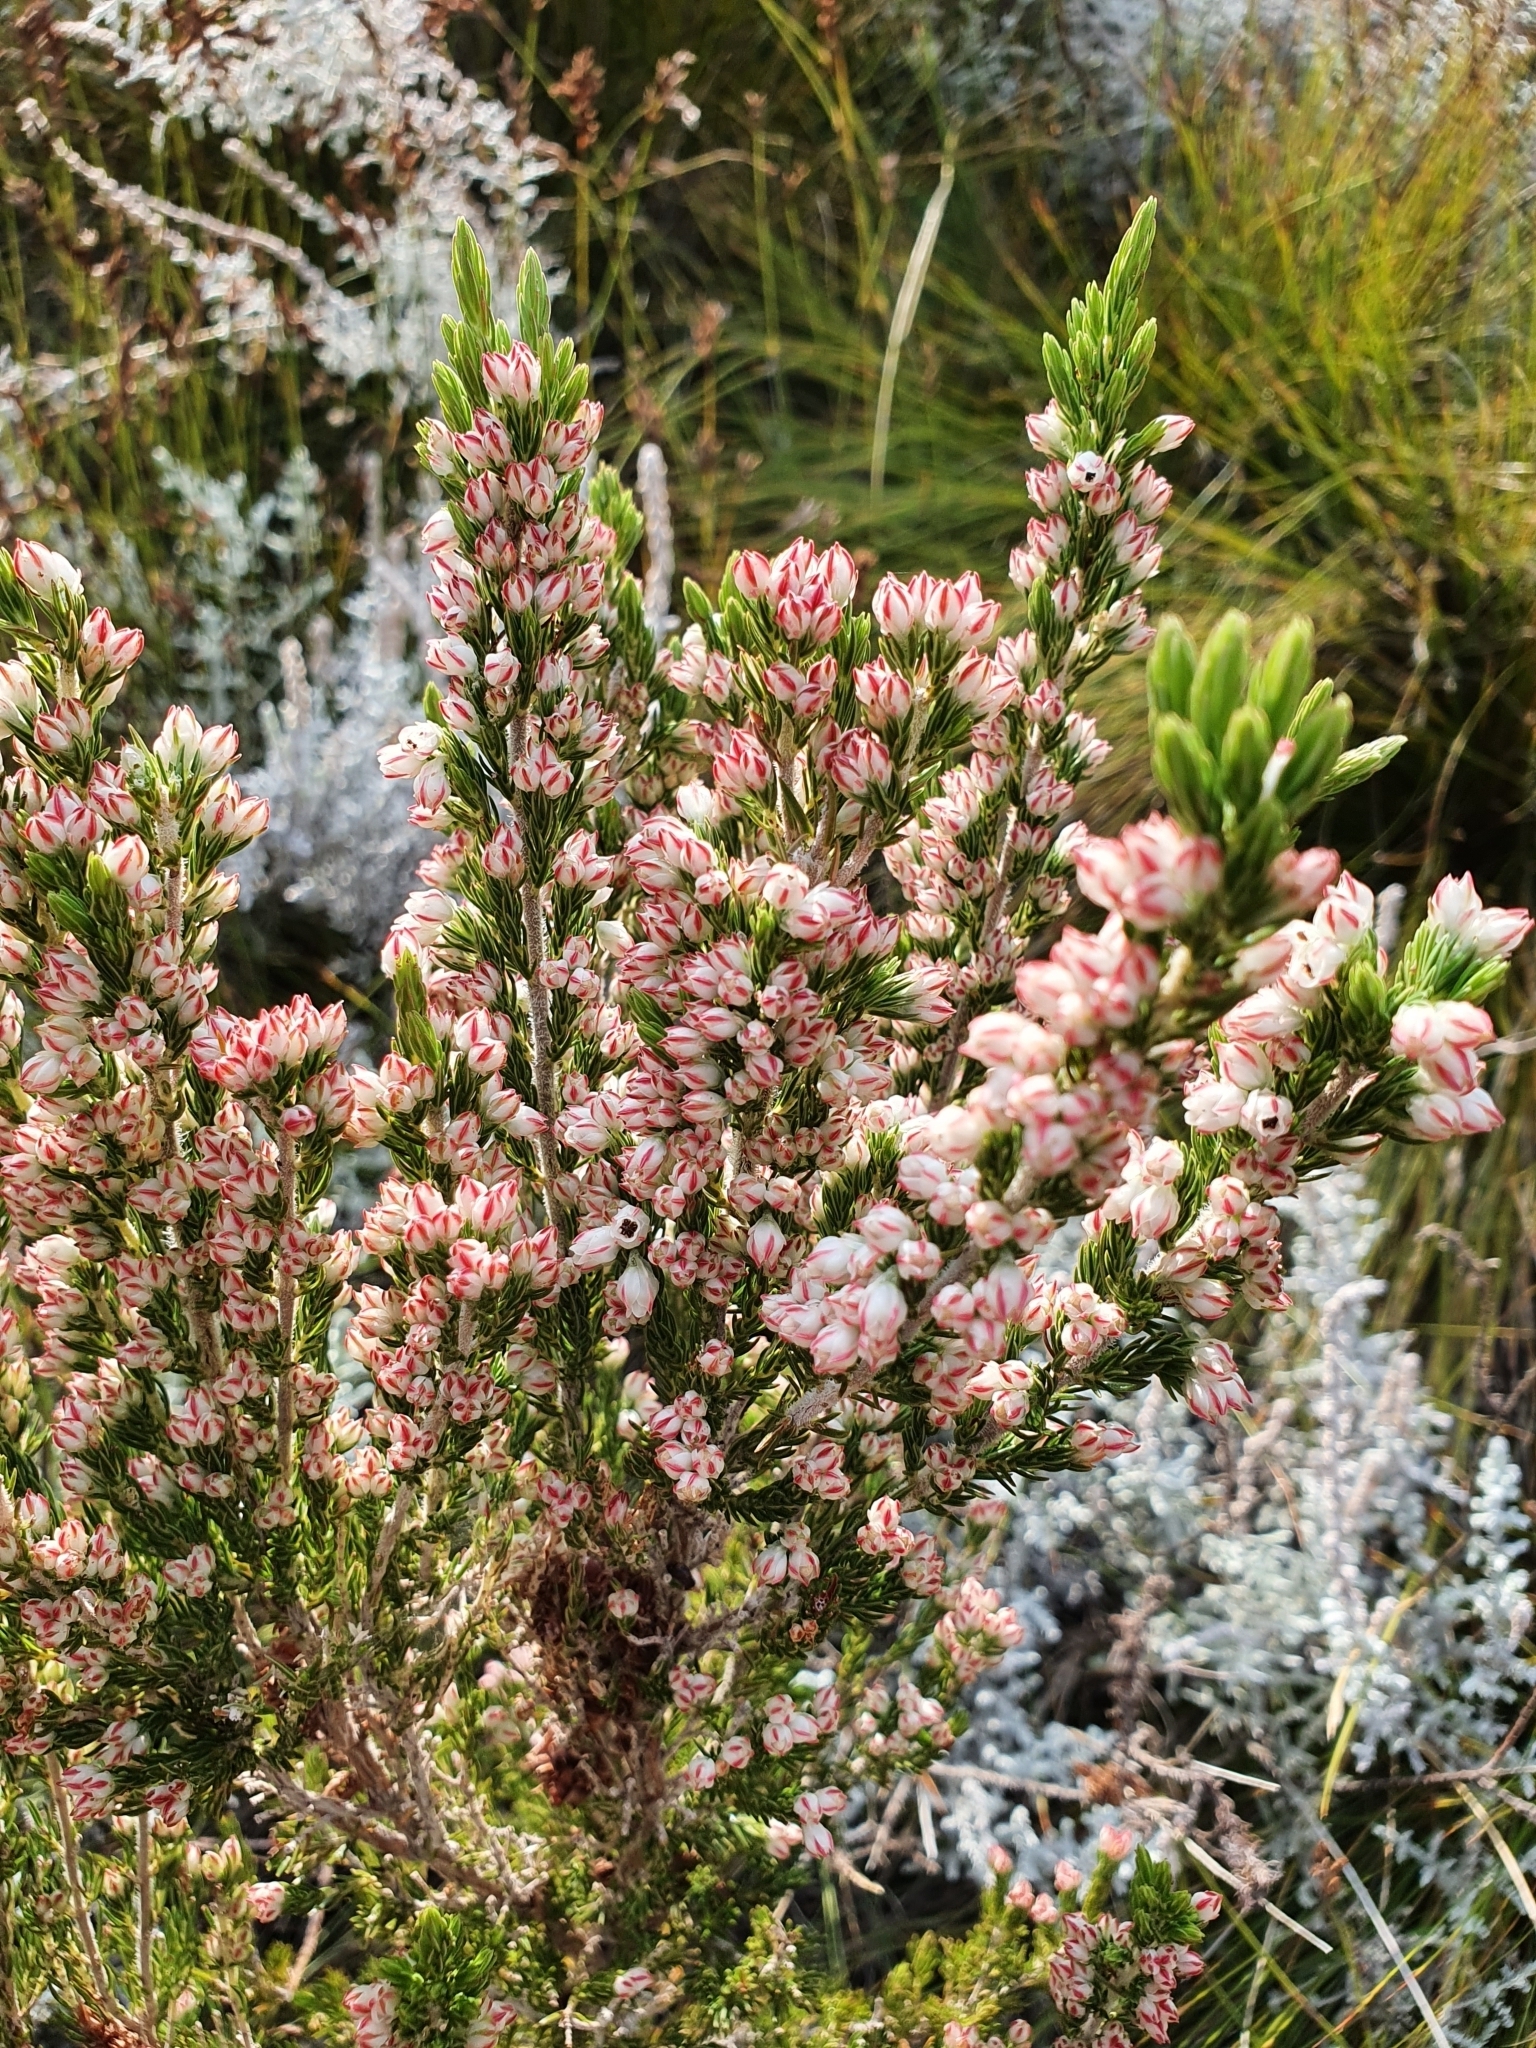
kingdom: Plantae
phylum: Tracheophyta
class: Magnoliopsida
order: Ericales
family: Ericaceae
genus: Erica
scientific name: Erica triflora
